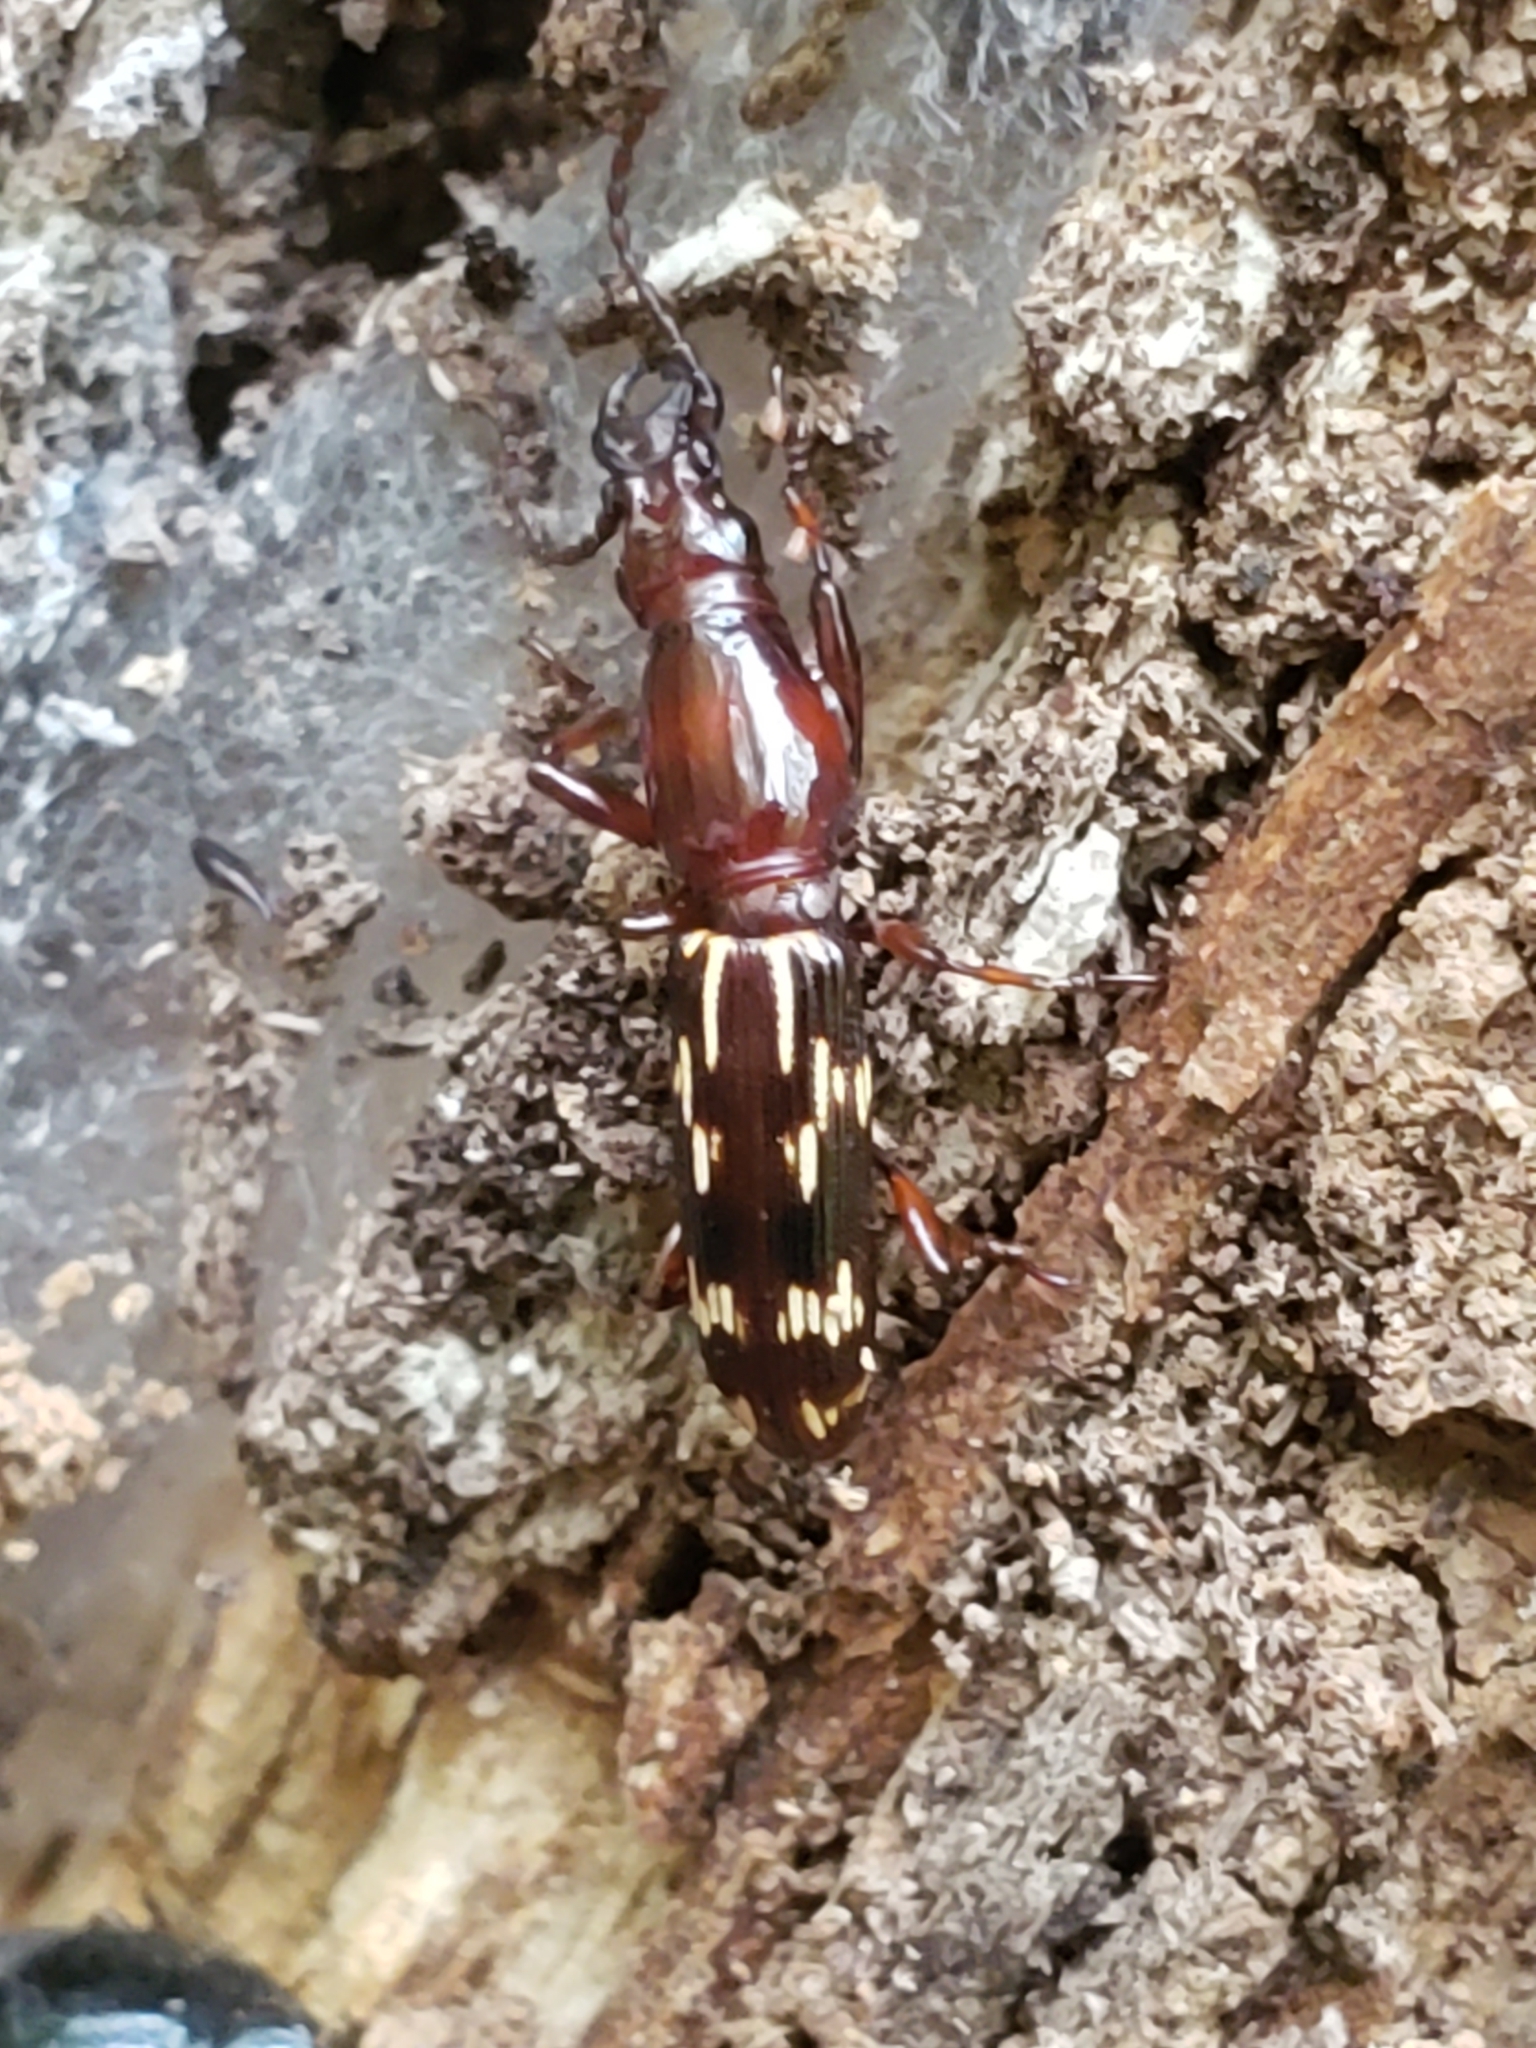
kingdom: Animalia
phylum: Arthropoda
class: Insecta
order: Coleoptera
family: Brentidae
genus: Arrenodes
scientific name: Arrenodes minutus
